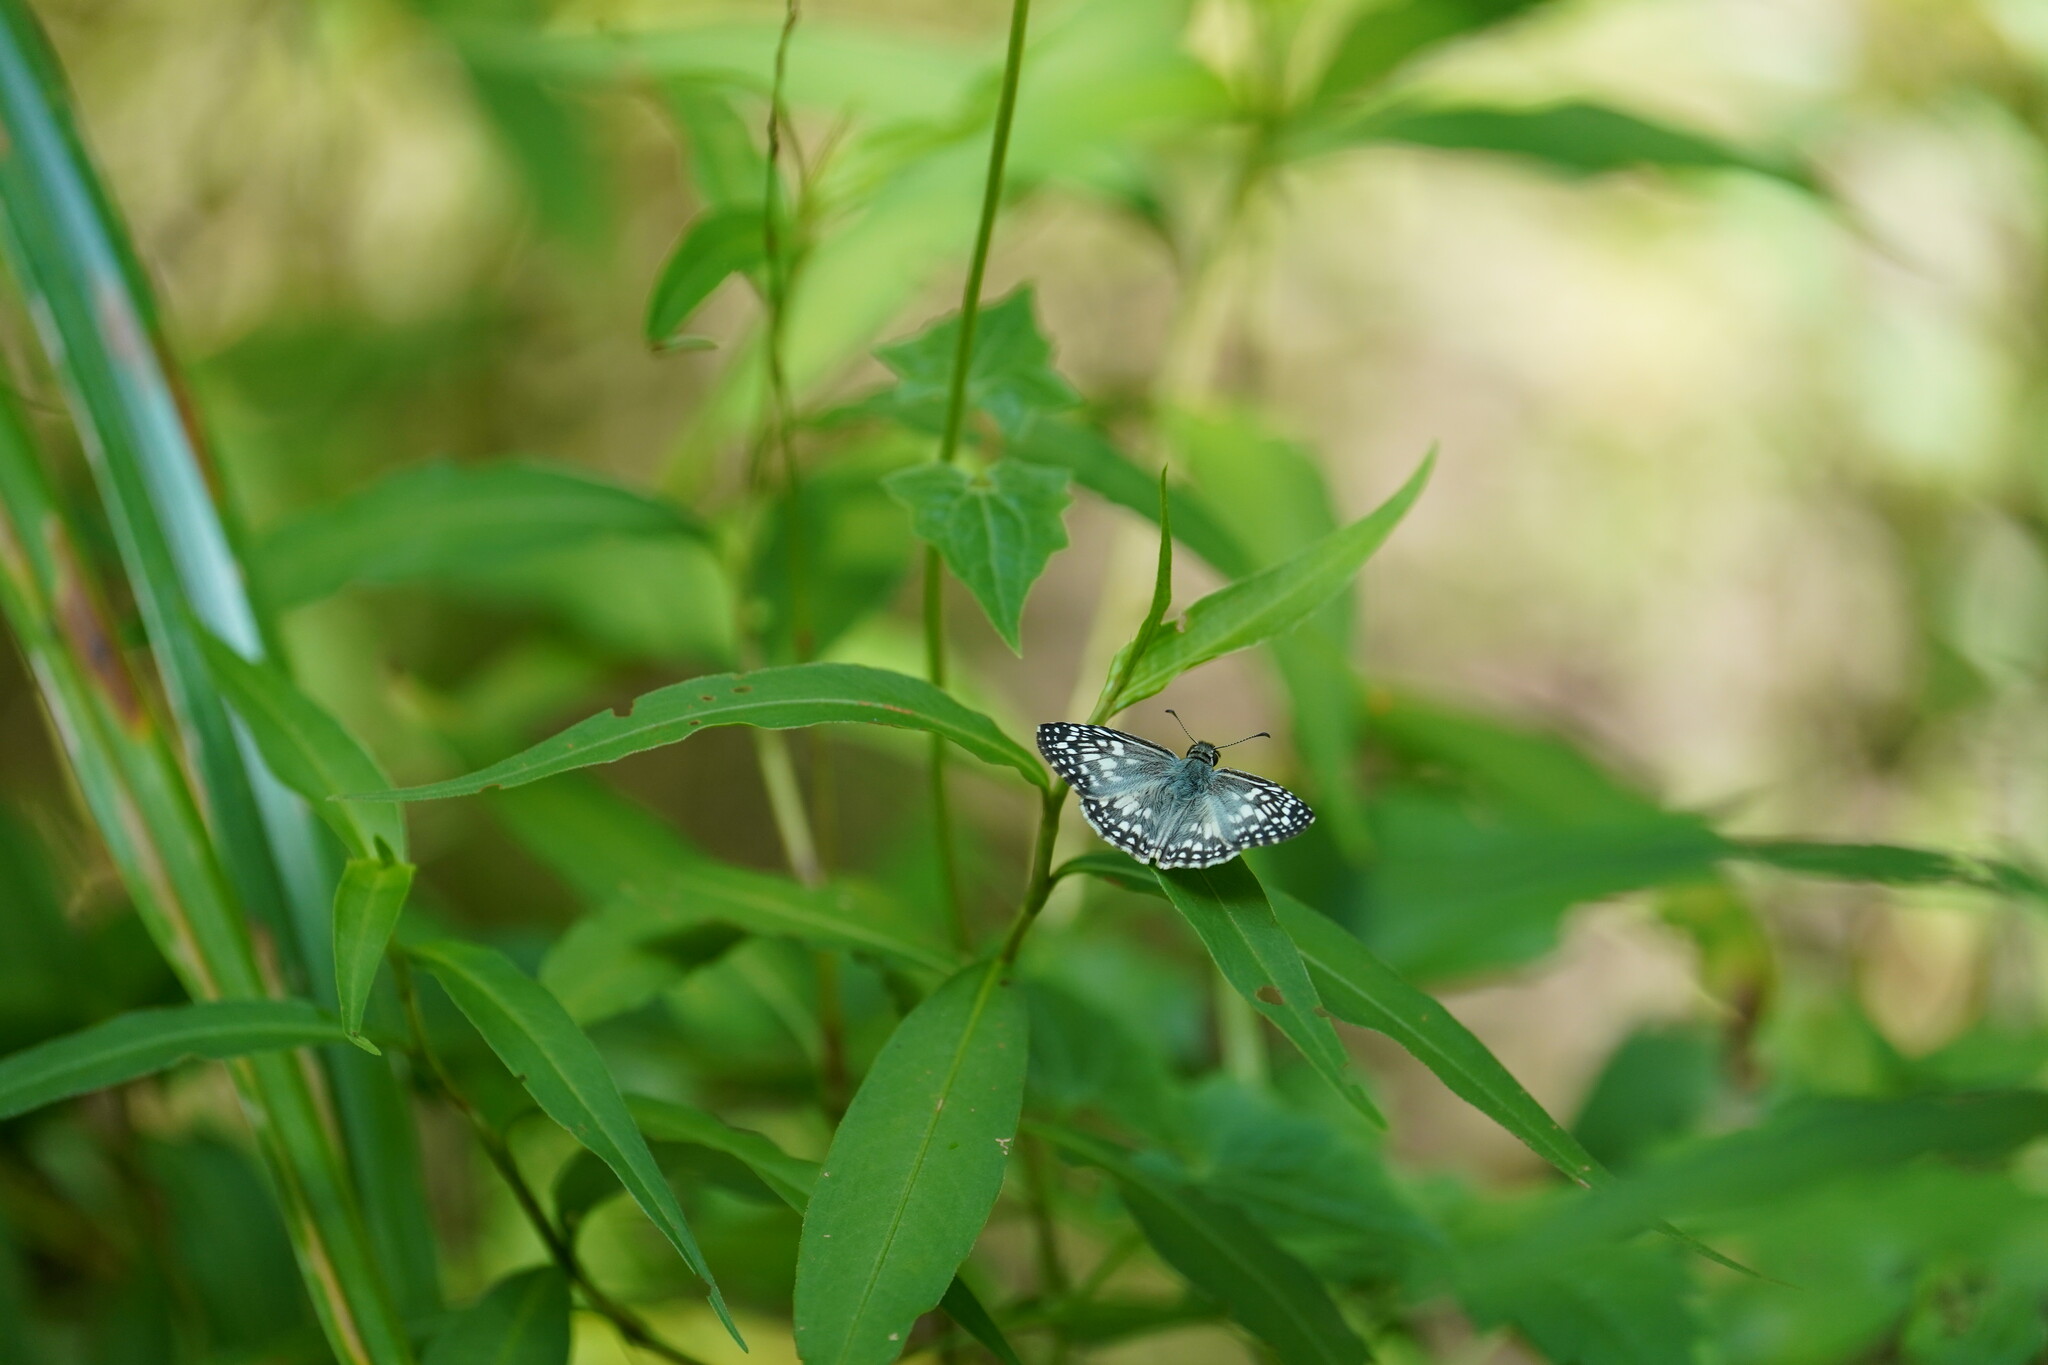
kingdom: Animalia
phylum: Arthropoda
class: Insecta
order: Lepidoptera
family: Hesperiidae
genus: Pyrgus
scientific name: Pyrgus oileus
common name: Tropical checkered-skipper
